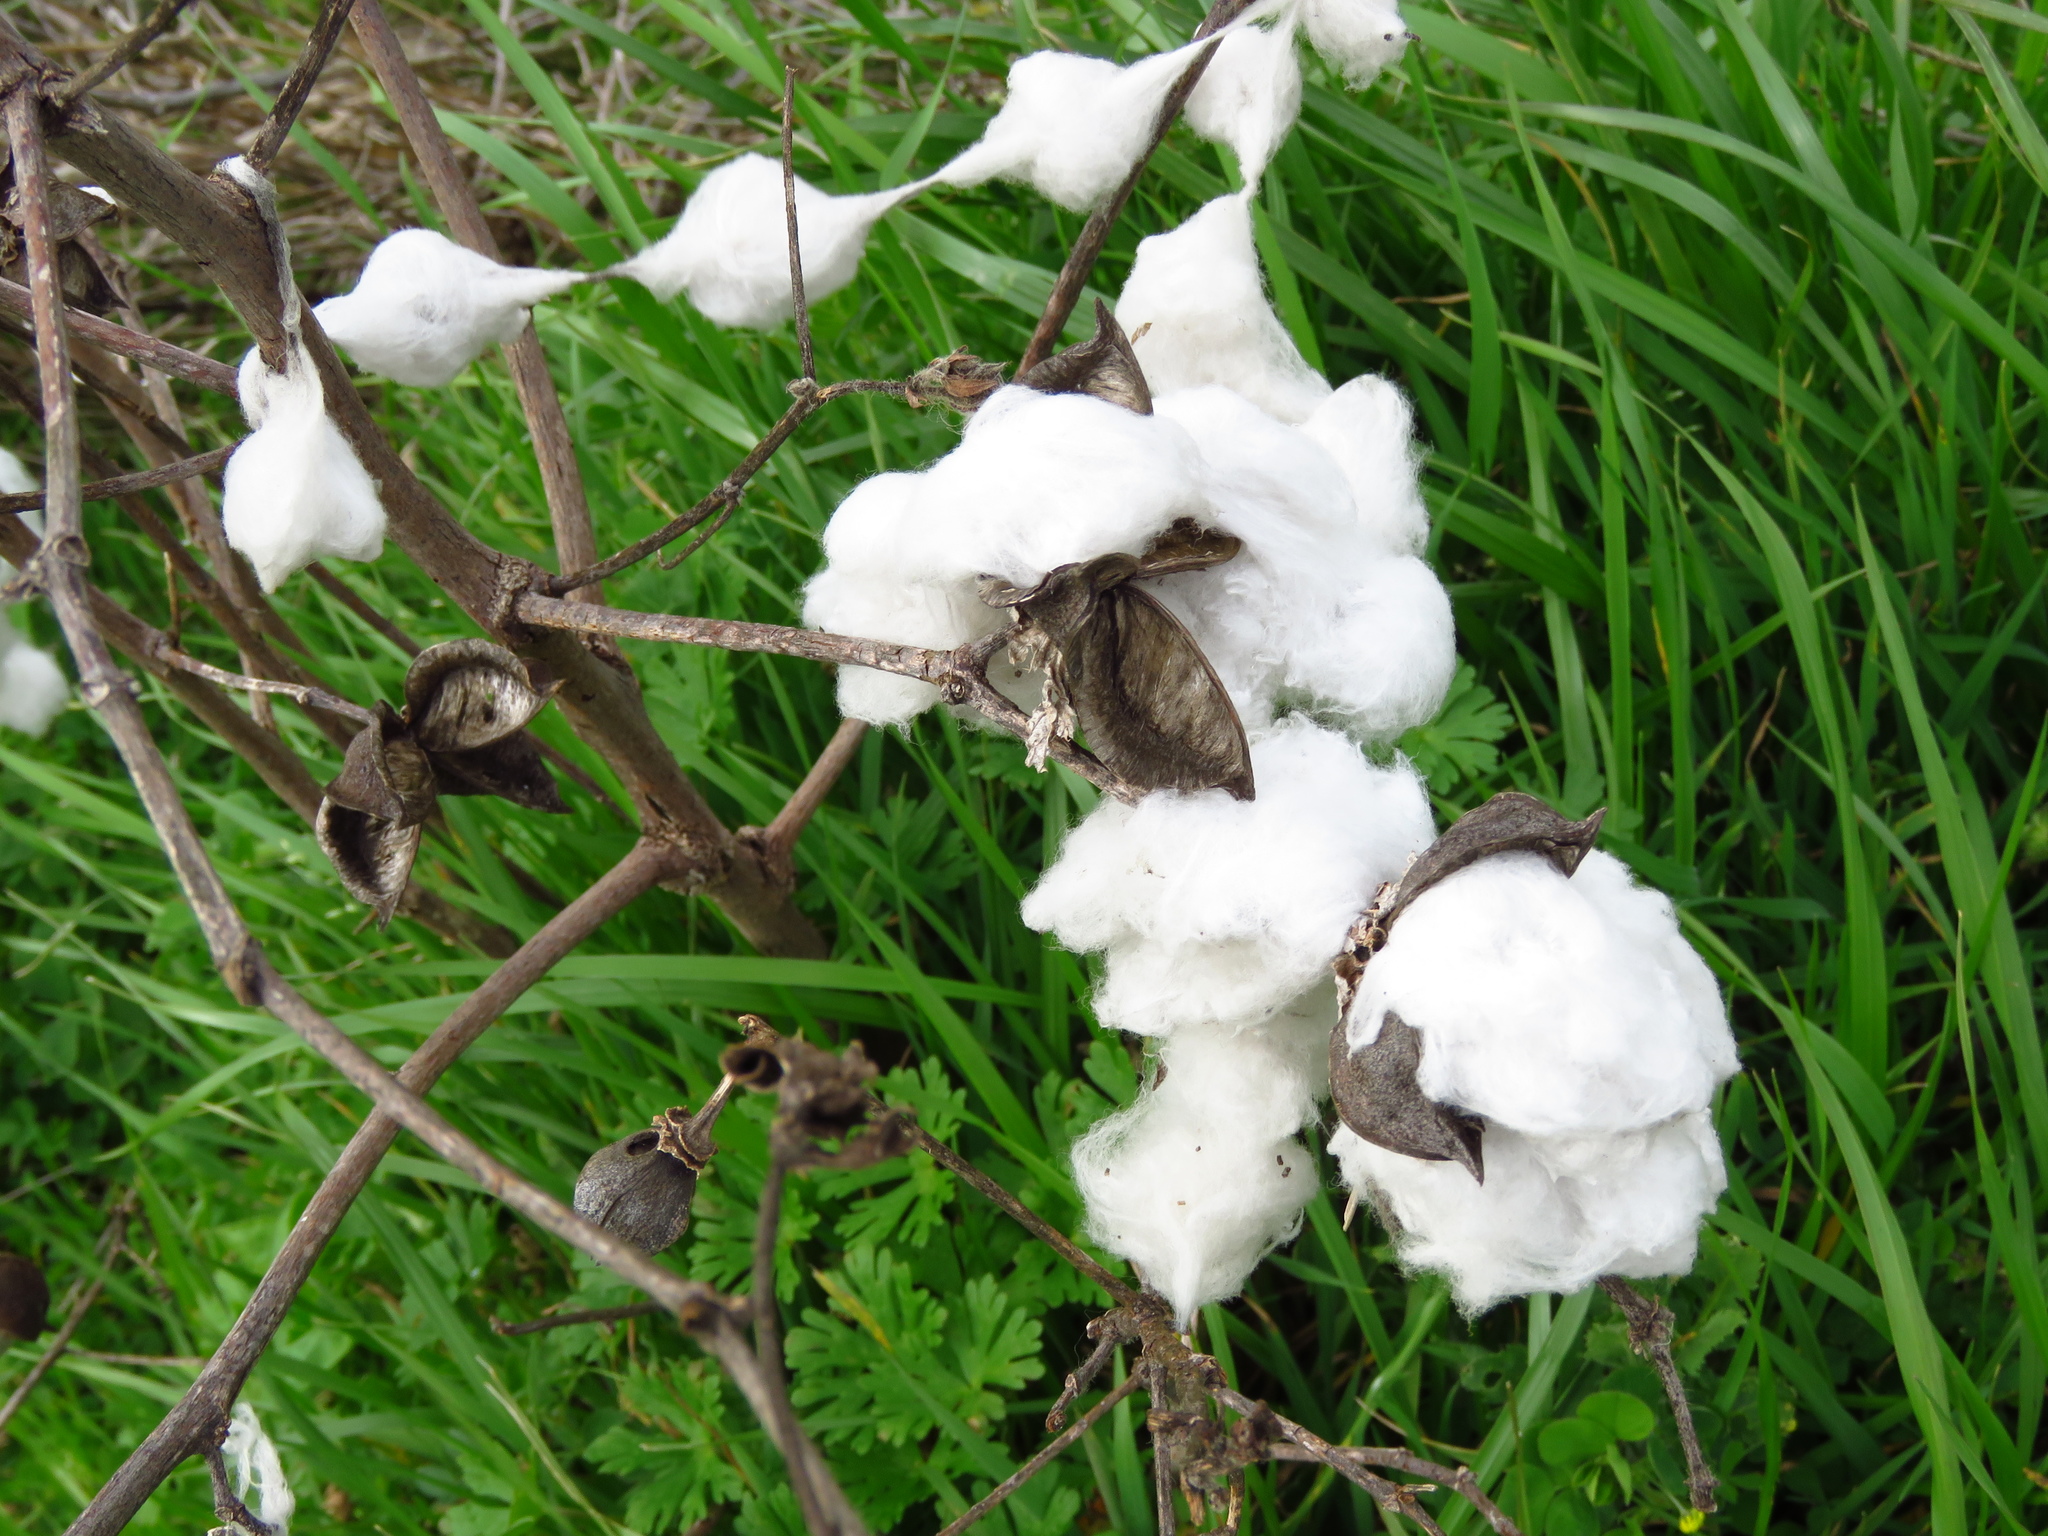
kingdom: Plantae
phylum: Tracheophyta
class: Magnoliopsida
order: Malvales
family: Malvaceae
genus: Gossypium
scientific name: Gossypium hirsutum
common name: Cotton
